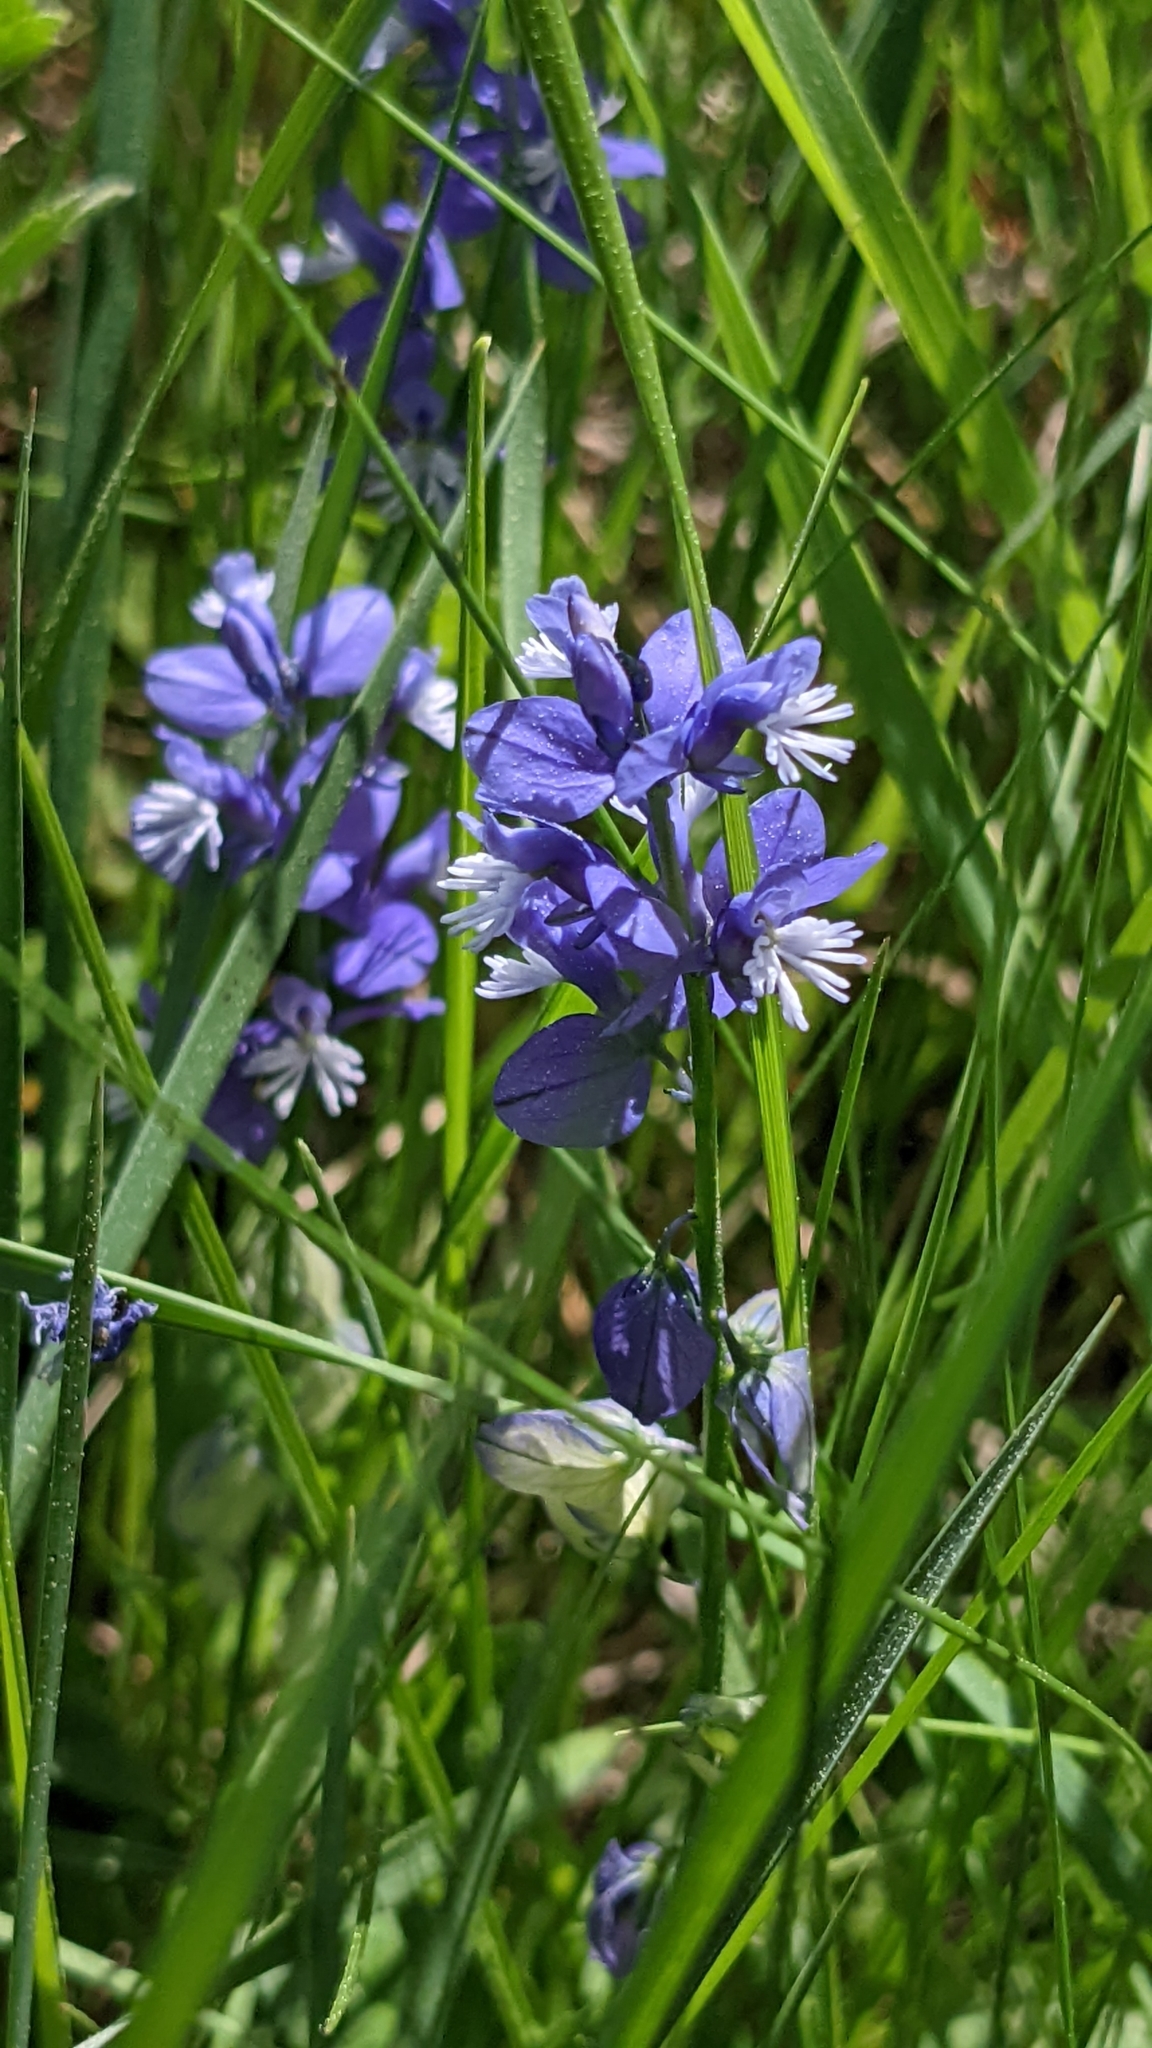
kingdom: Plantae
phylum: Tracheophyta
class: Magnoliopsida
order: Fabales
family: Polygalaceae
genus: Polygala
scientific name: Polygala vulgaris
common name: Common milkwort
